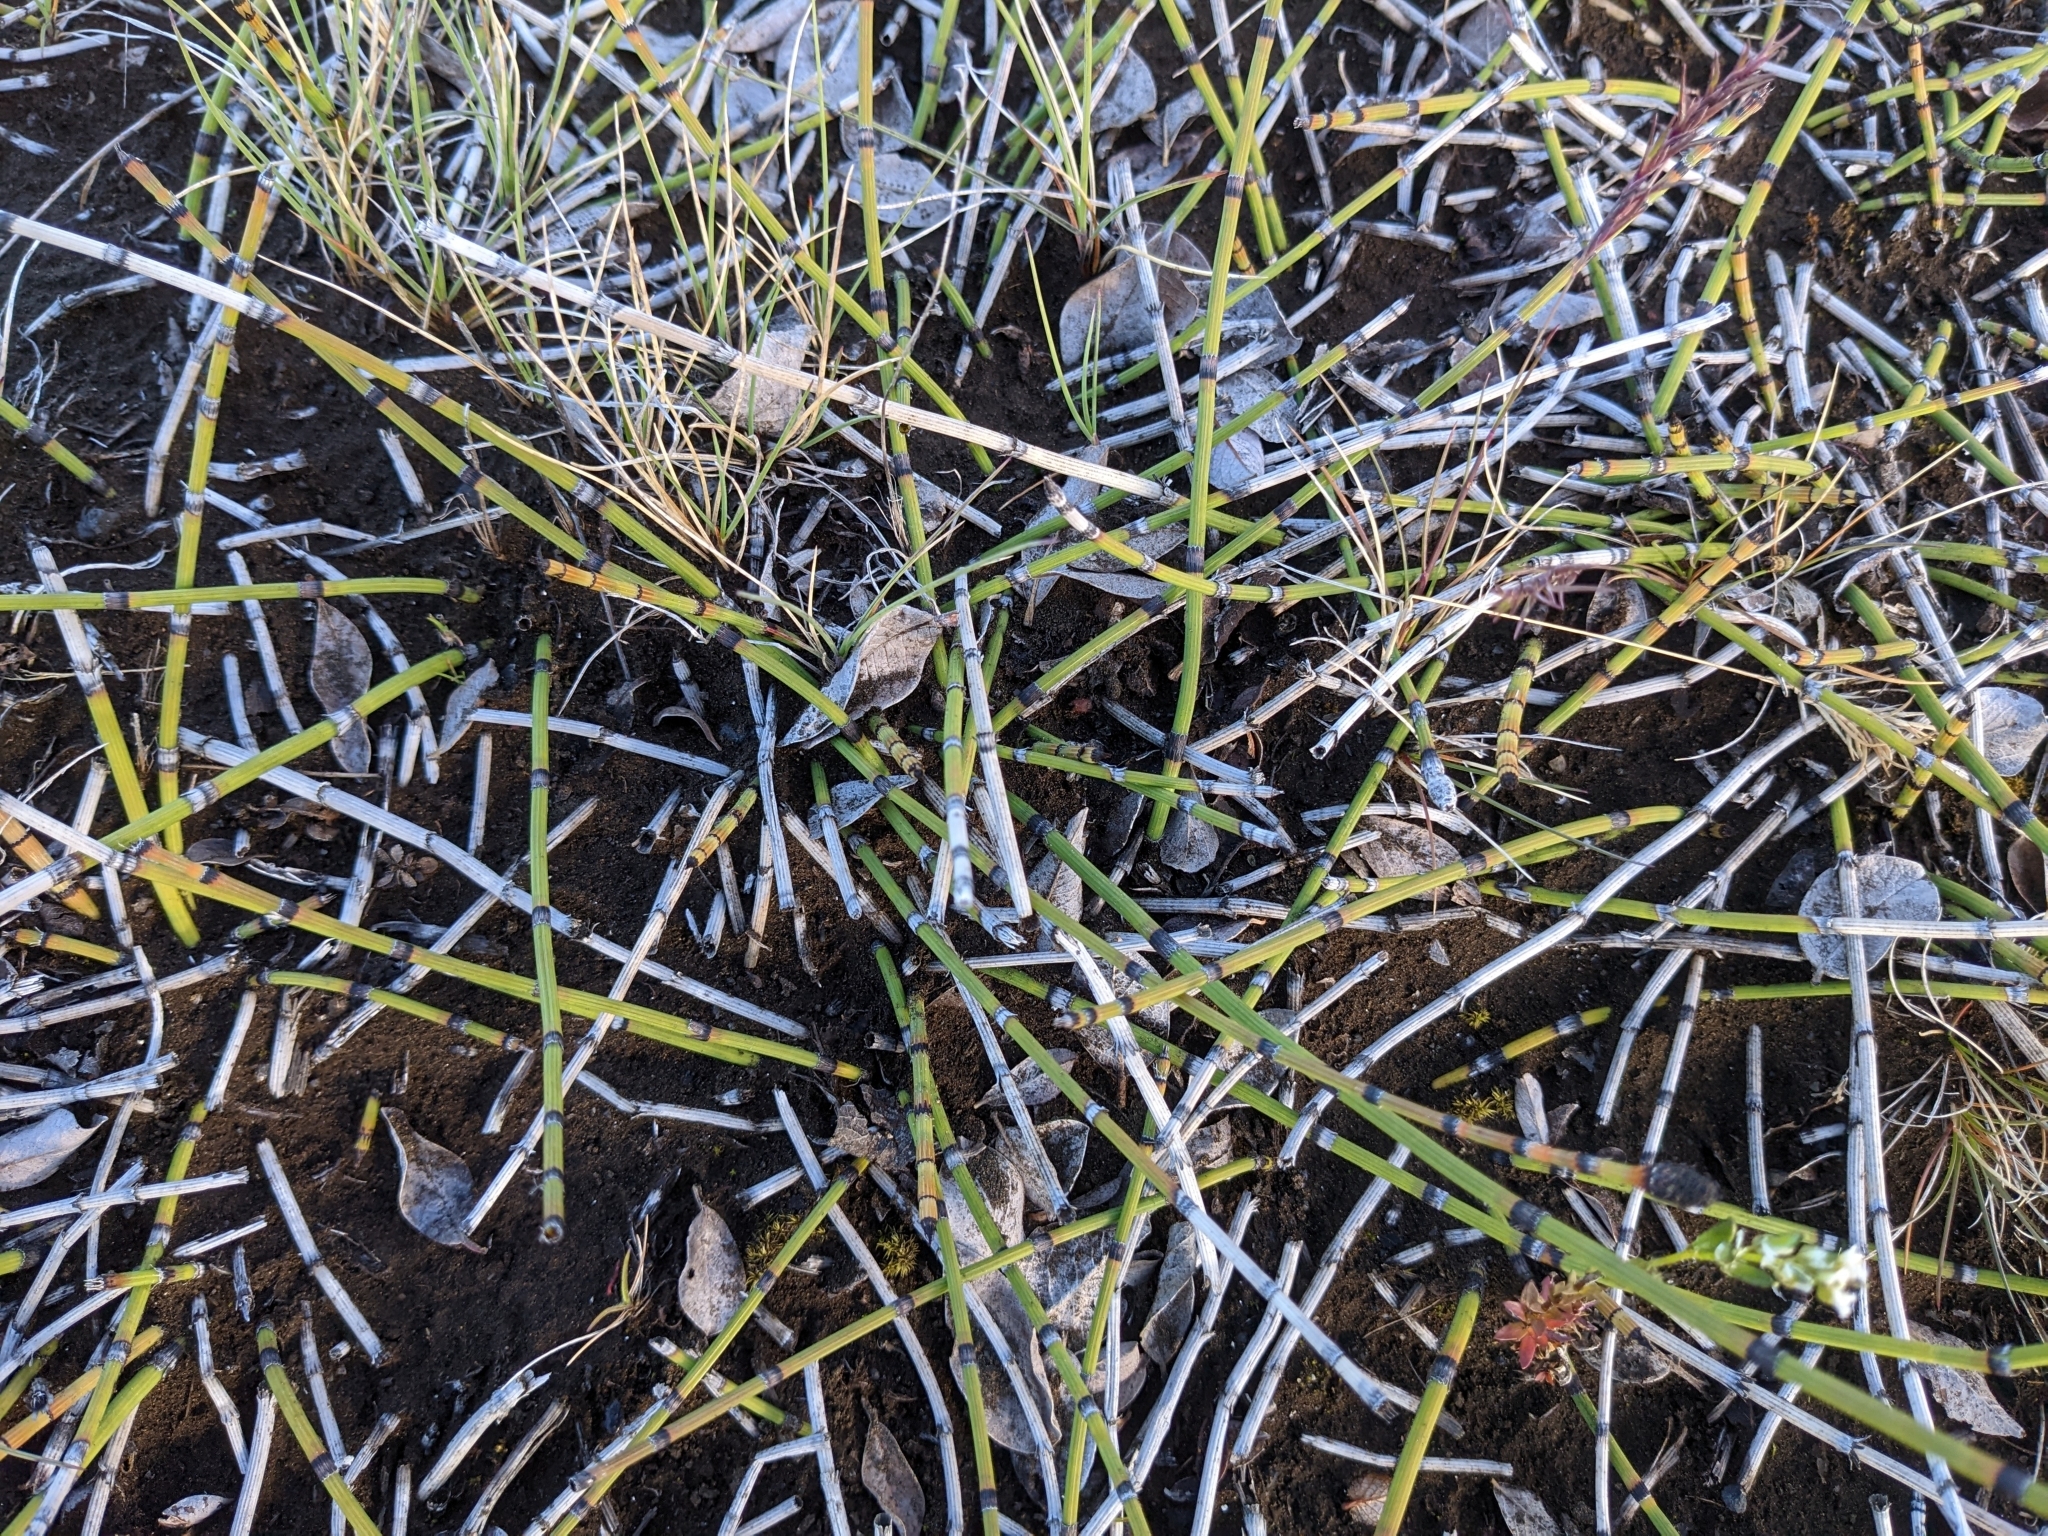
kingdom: Plantae
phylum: Tracheophyta
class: Polypodiopsida
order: Equisetales
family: Equisetaceae
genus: Equisetum
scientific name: Equisetum hyemale
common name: Rough horsetail
